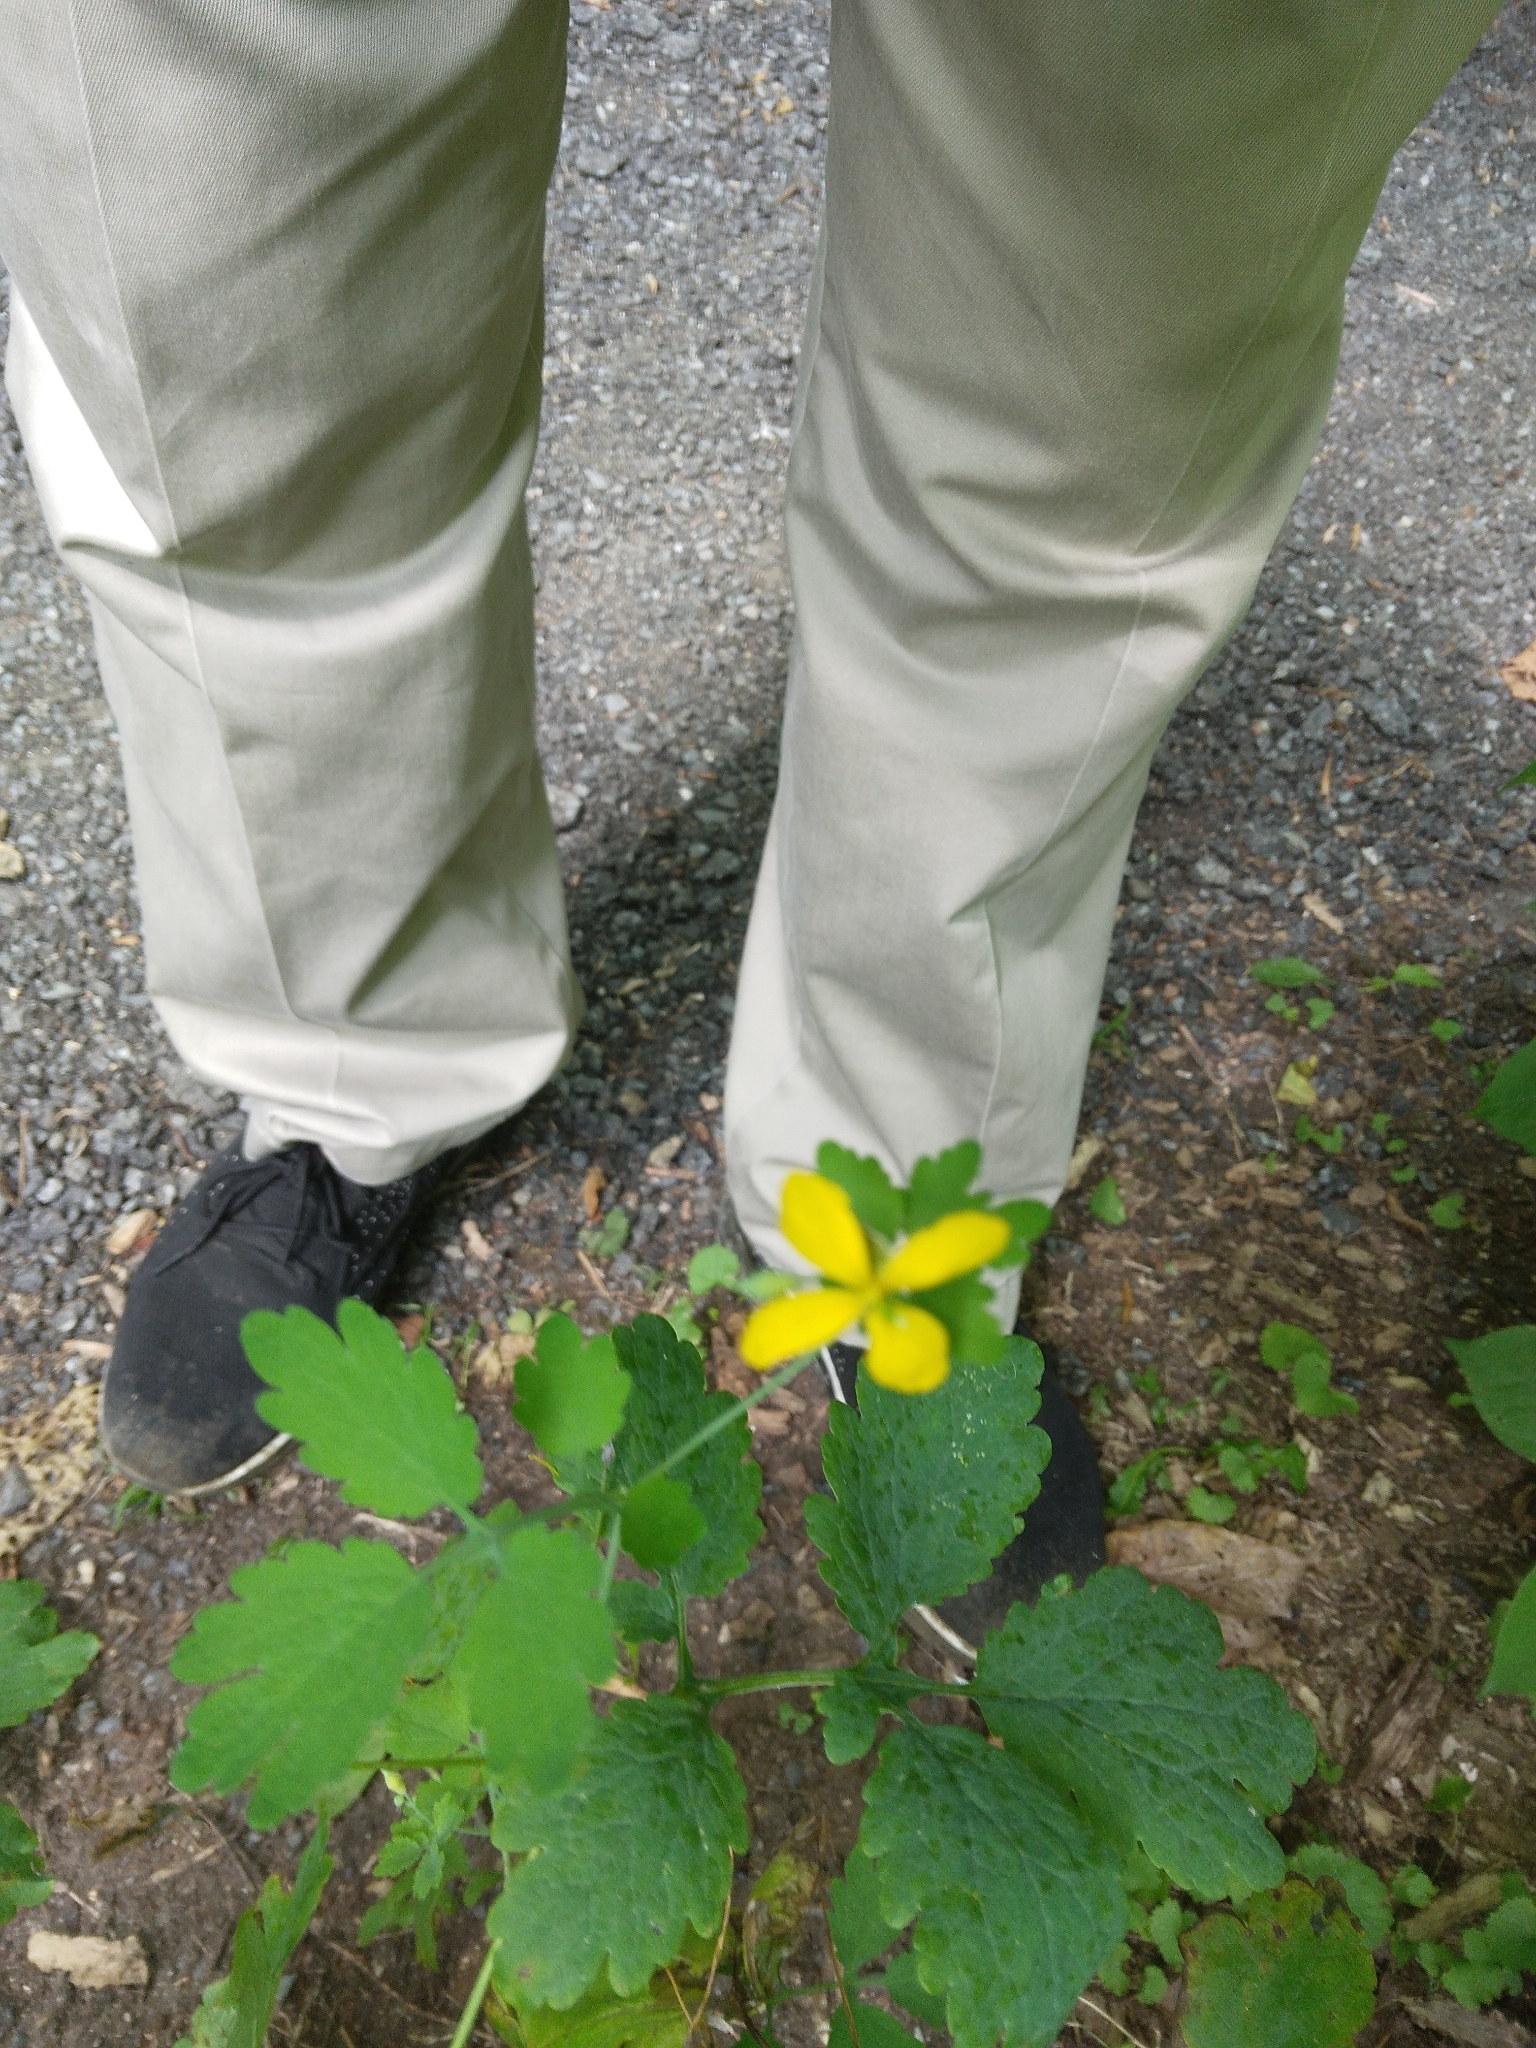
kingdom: Plantae
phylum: Tracheophyta
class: Magnoliopsida
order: Ranunculales
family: Papaveraceae
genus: Chelidonium
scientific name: Chelidonium majus
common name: Greater celandine
